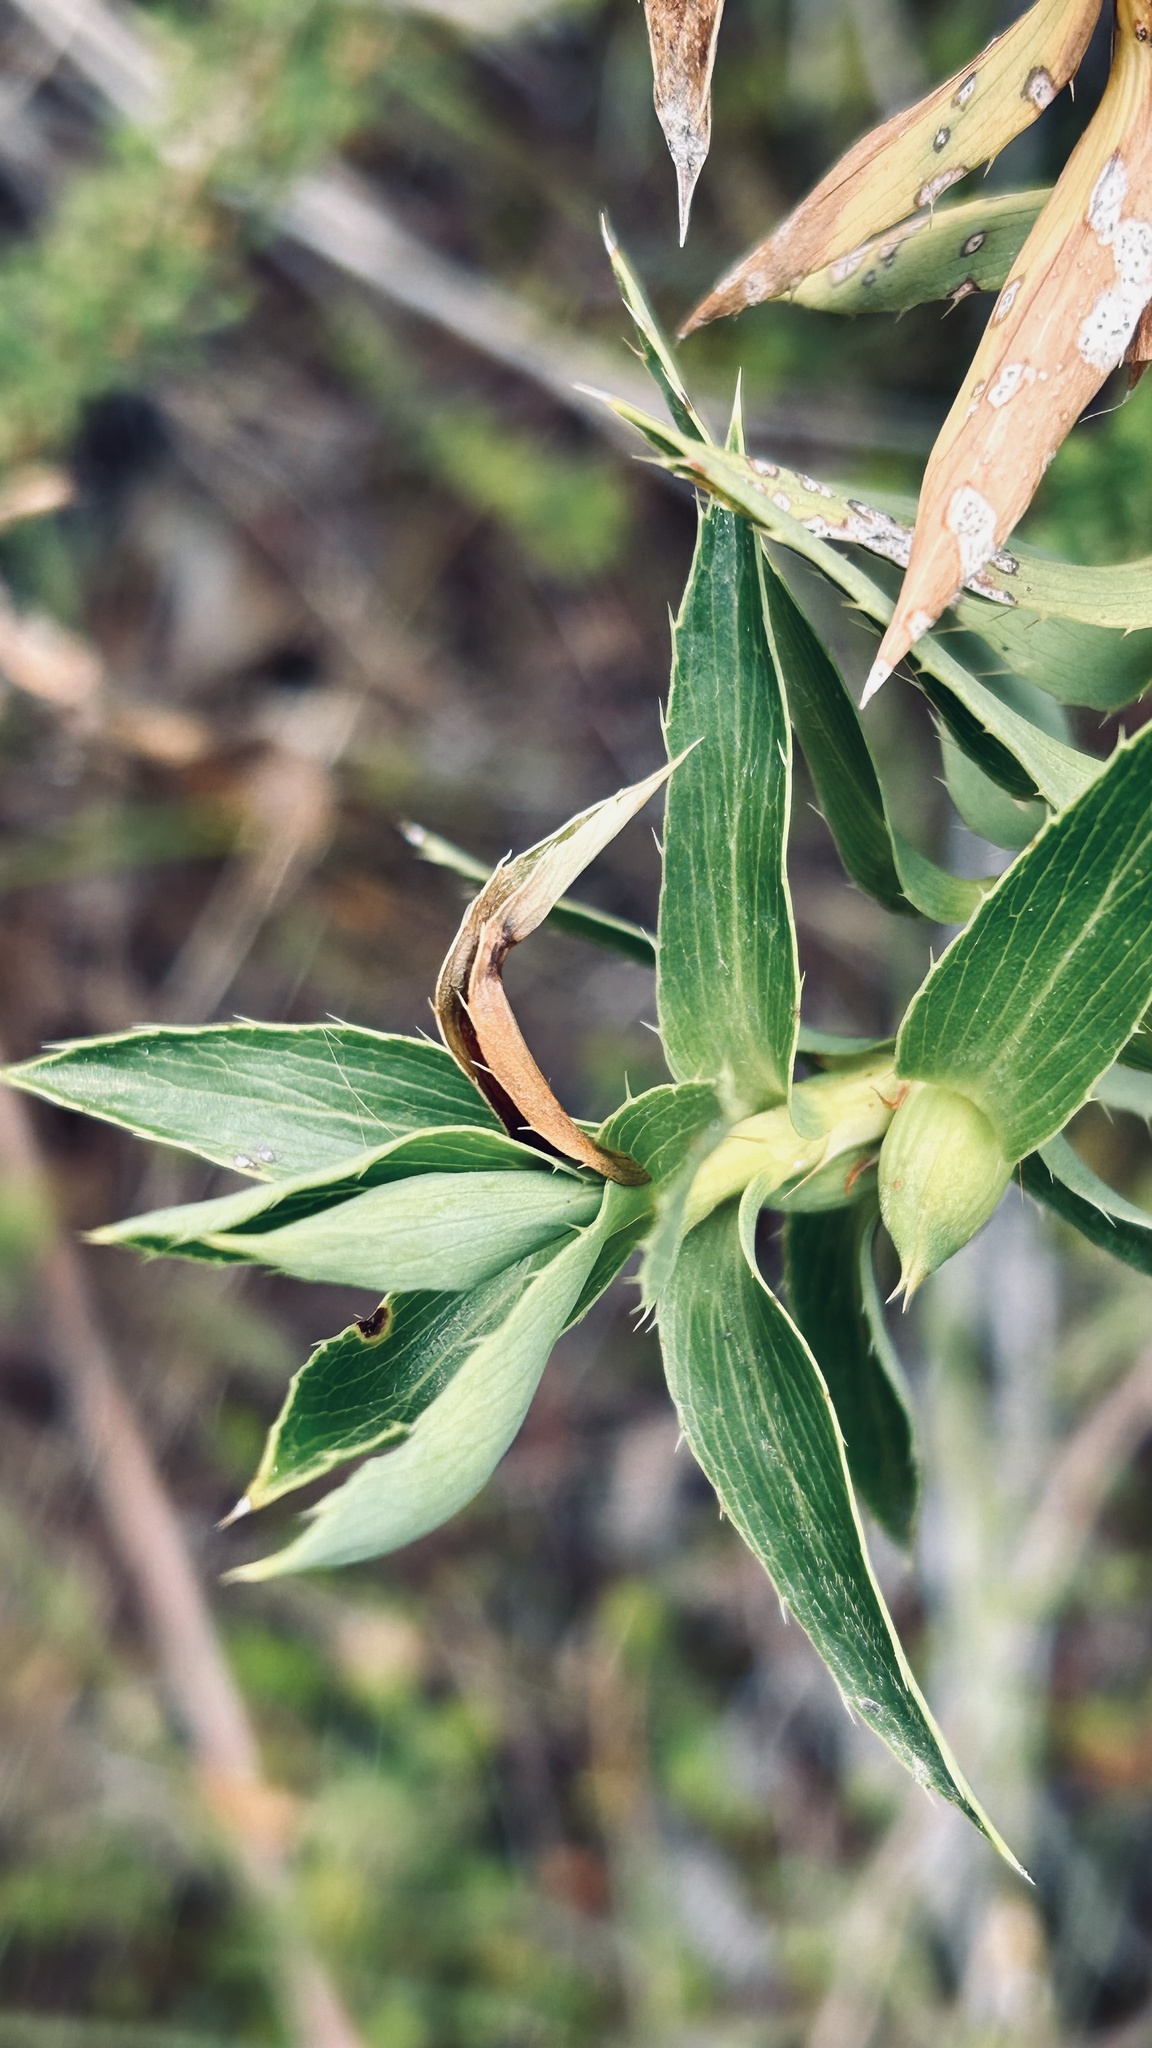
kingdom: Plantae
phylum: Tracheophyta
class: Magnoliopsida
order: Rosales
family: Rosaceae
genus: Cliffortia
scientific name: Cliffortia grandifolia
